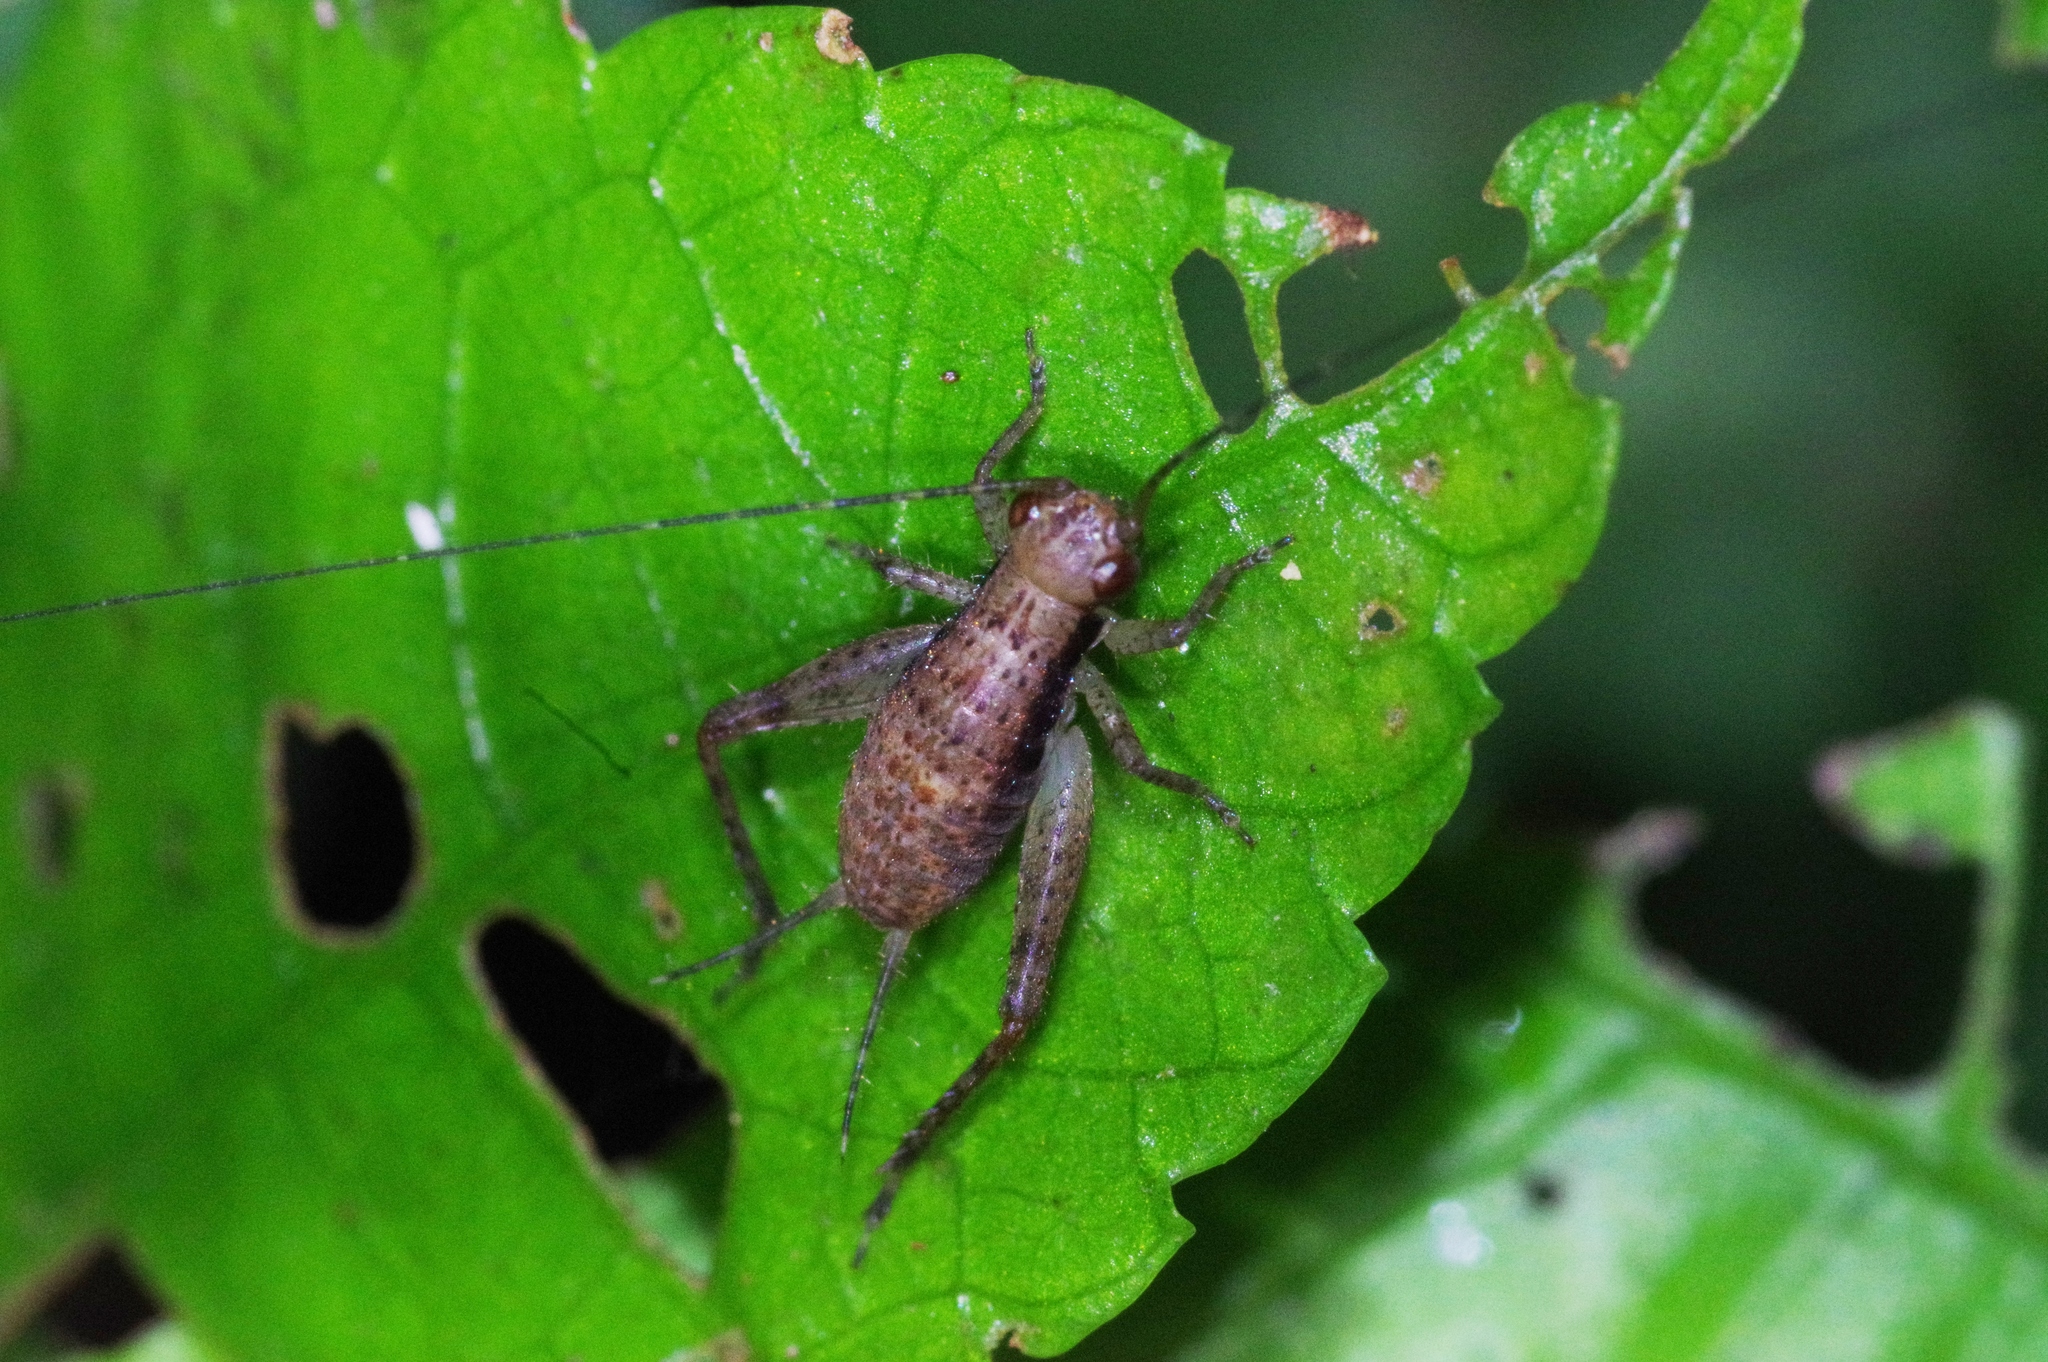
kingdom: Animalia
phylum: Arthropoda
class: Insecta
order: Orthoptera
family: Gryllidae
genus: Cardiodactylus
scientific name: Cardiodactylus guttulus
